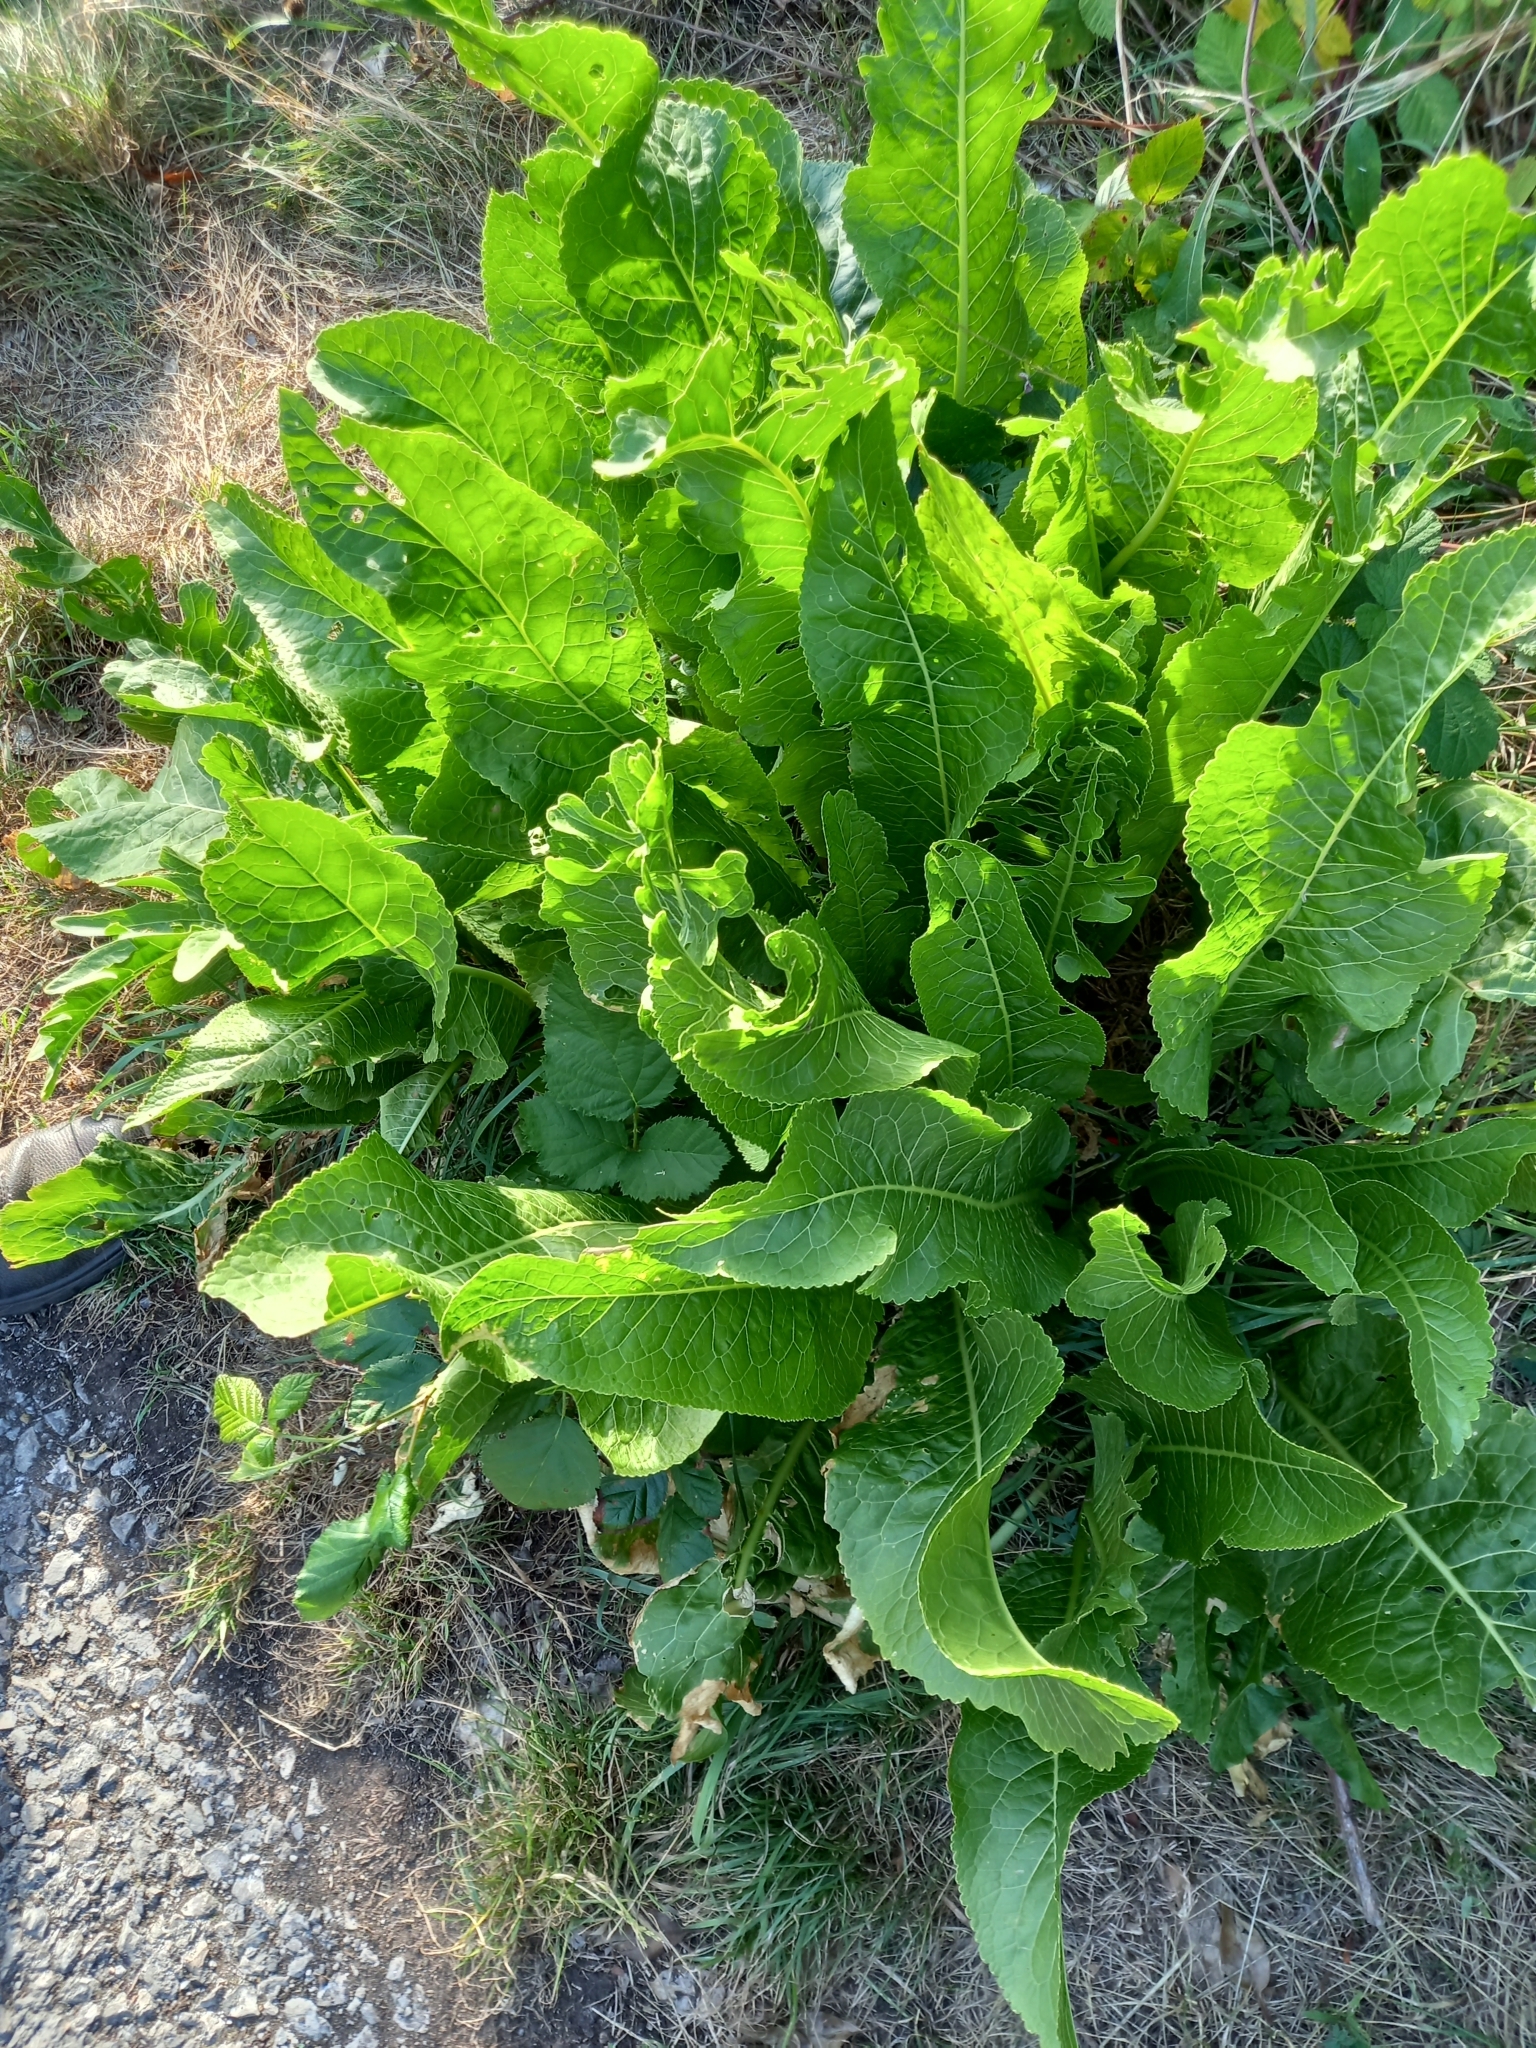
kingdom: Plantae
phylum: Tracheophyta
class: Magnoliopsida
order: Brassicales
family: Brassicaceae
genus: Armoracia
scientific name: Armoracia rusticana
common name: Horseradish
